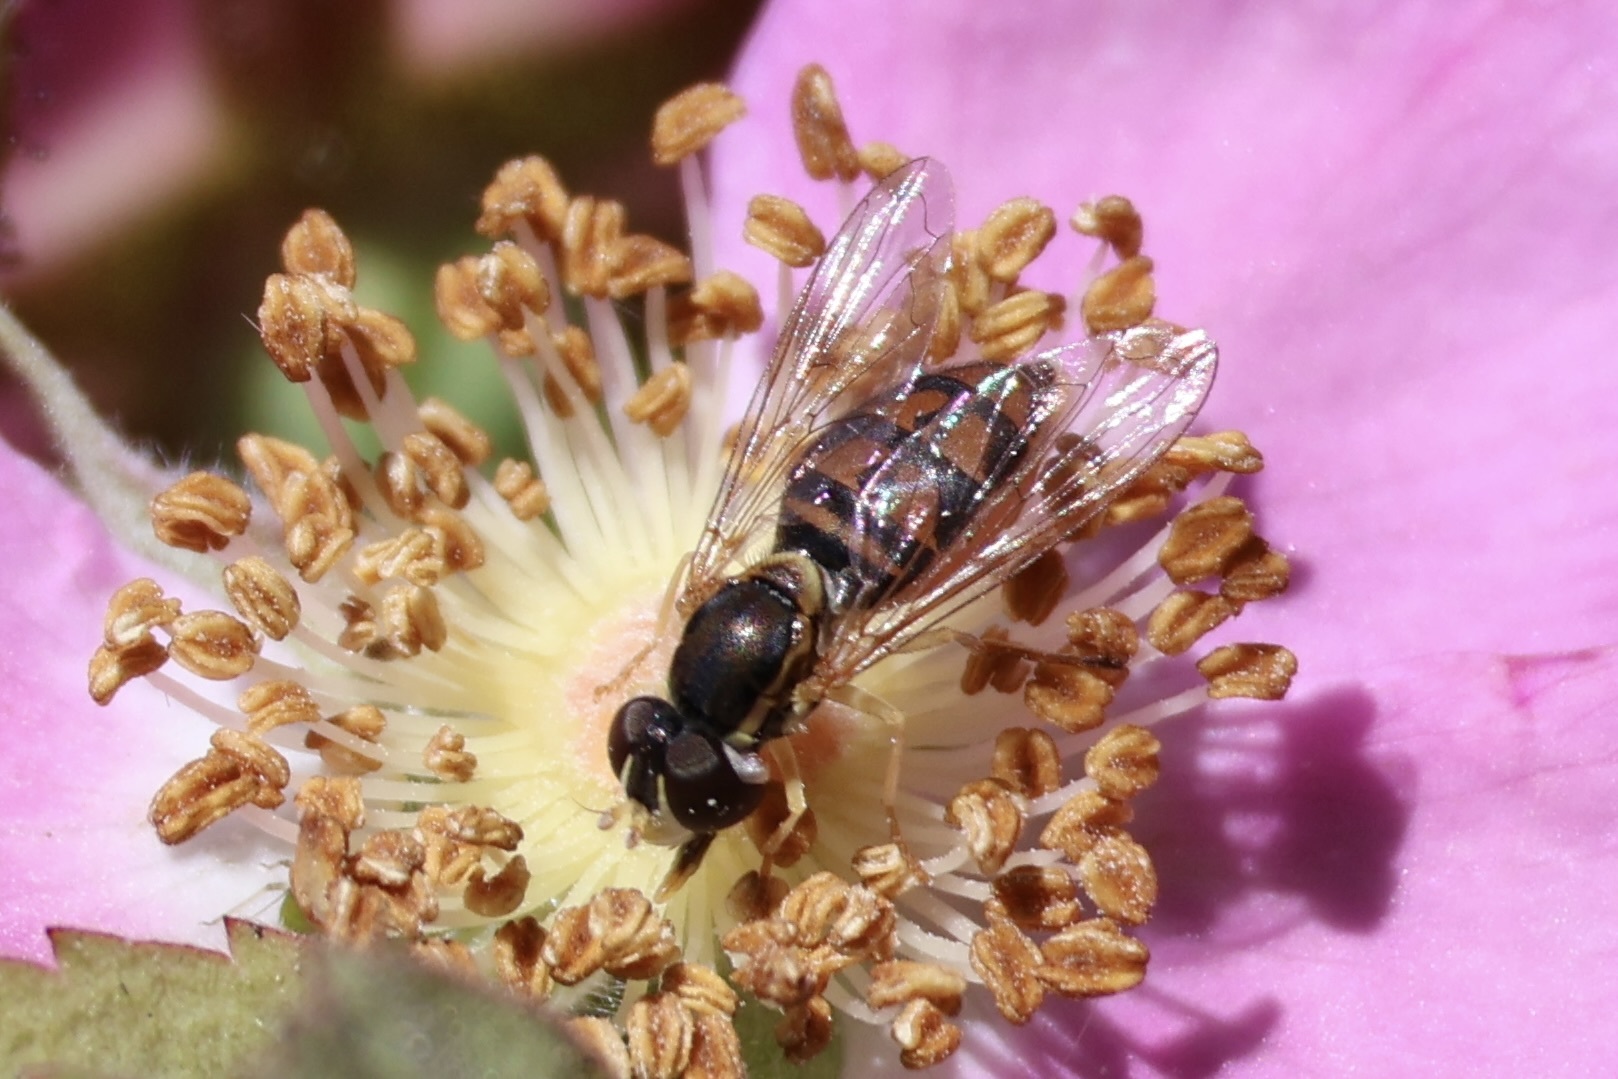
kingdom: Animalia
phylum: Arthropoda
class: Insecta
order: Diptera
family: Syrphidae
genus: Toxomerus
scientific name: Toxomerus marginatus
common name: Syrphid fly
